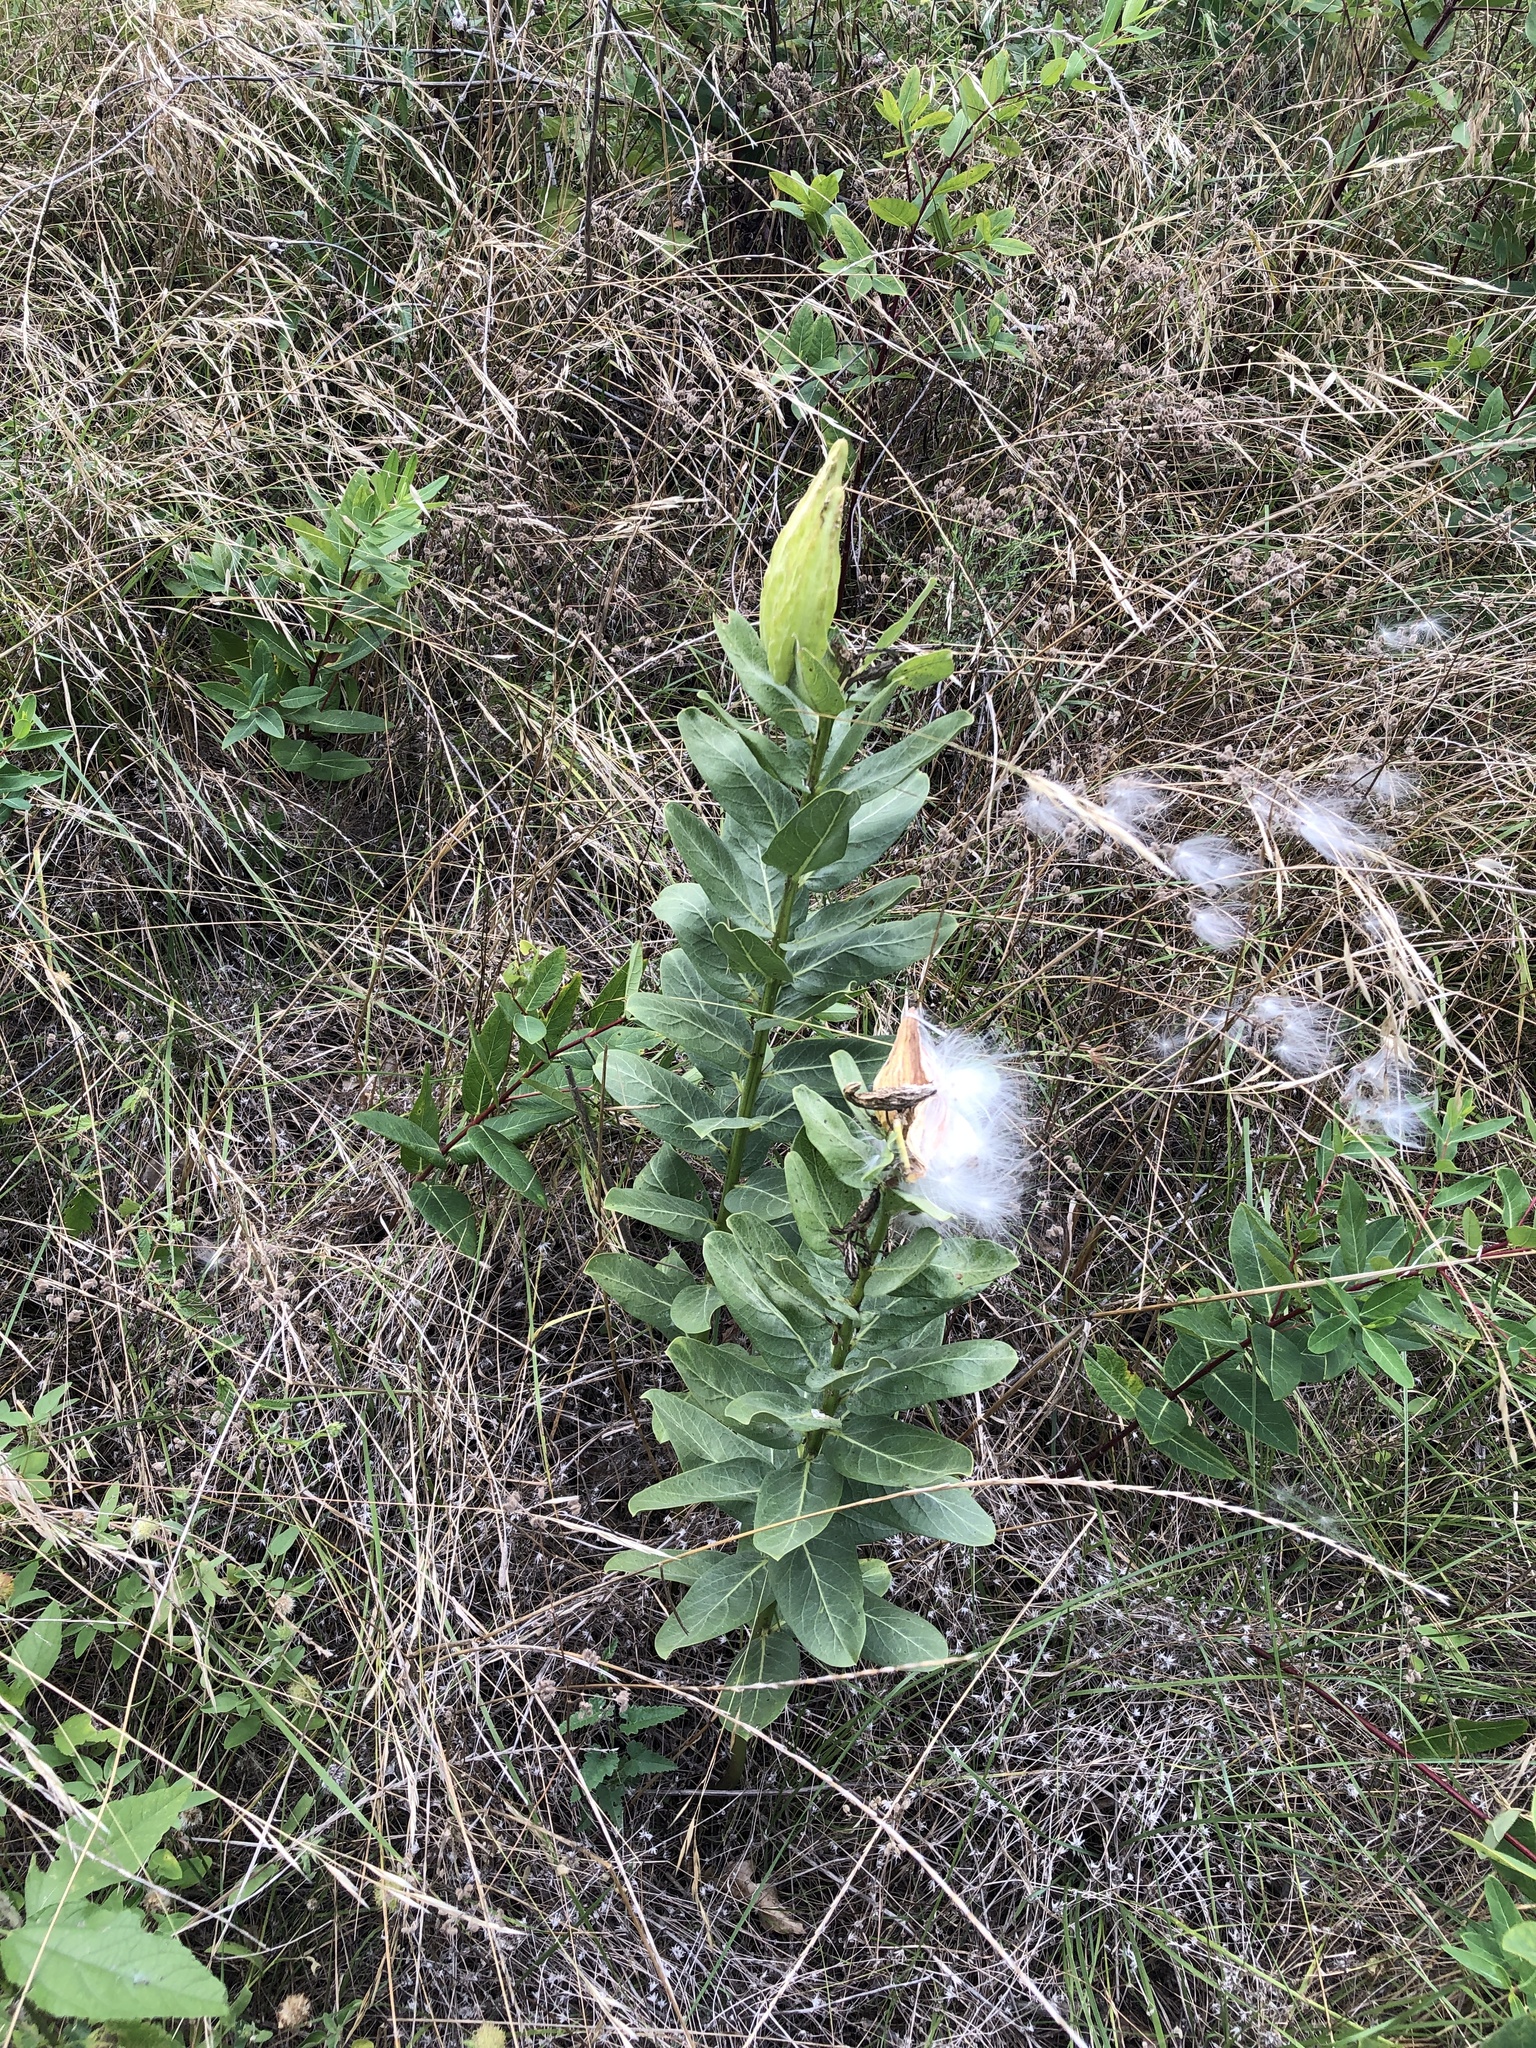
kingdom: Plantae
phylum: Tracheophyta
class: Magnoliopsida
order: Gentianales
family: Apocynaceae
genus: Asclepias
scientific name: Asclepias viridis
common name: Antelope-horns
